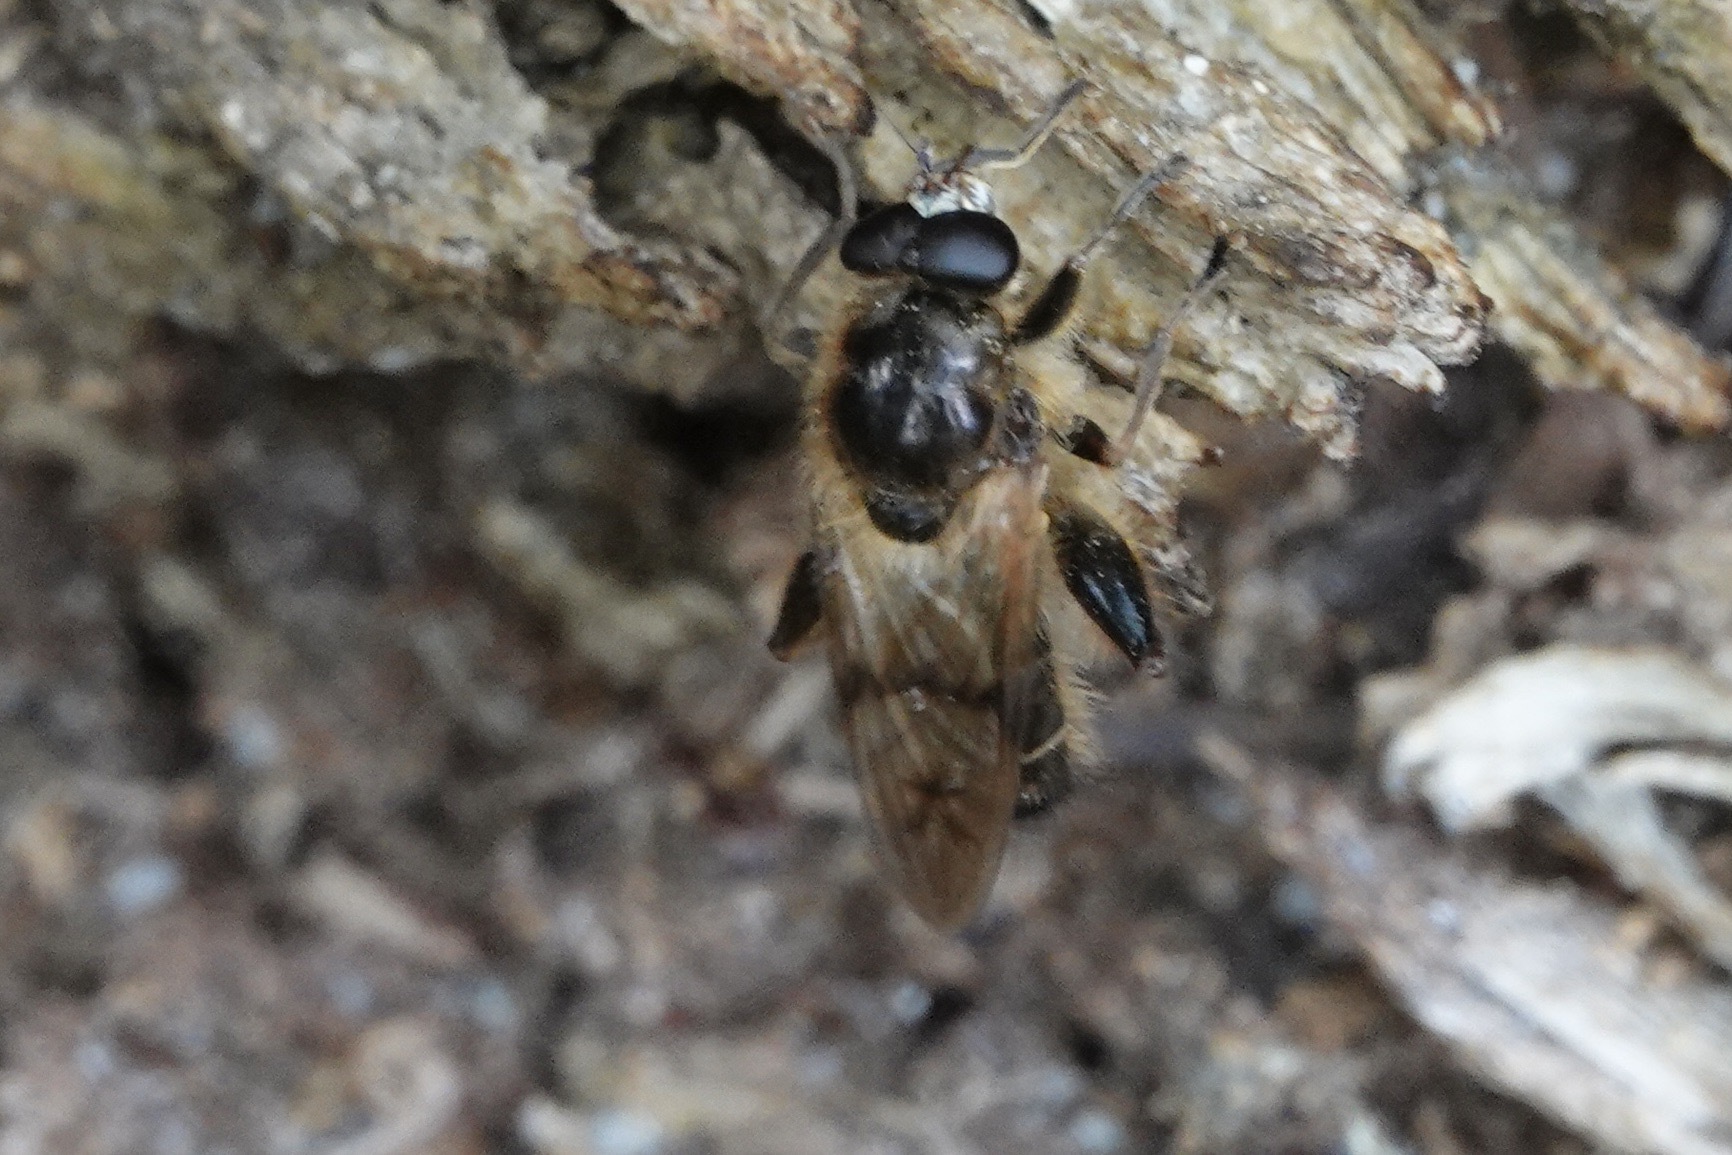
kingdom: Animalia
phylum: Arthropoda
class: Insecta
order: Diptera
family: Syrphidae
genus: Brachypalpus
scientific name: Brachypalpus valgus
